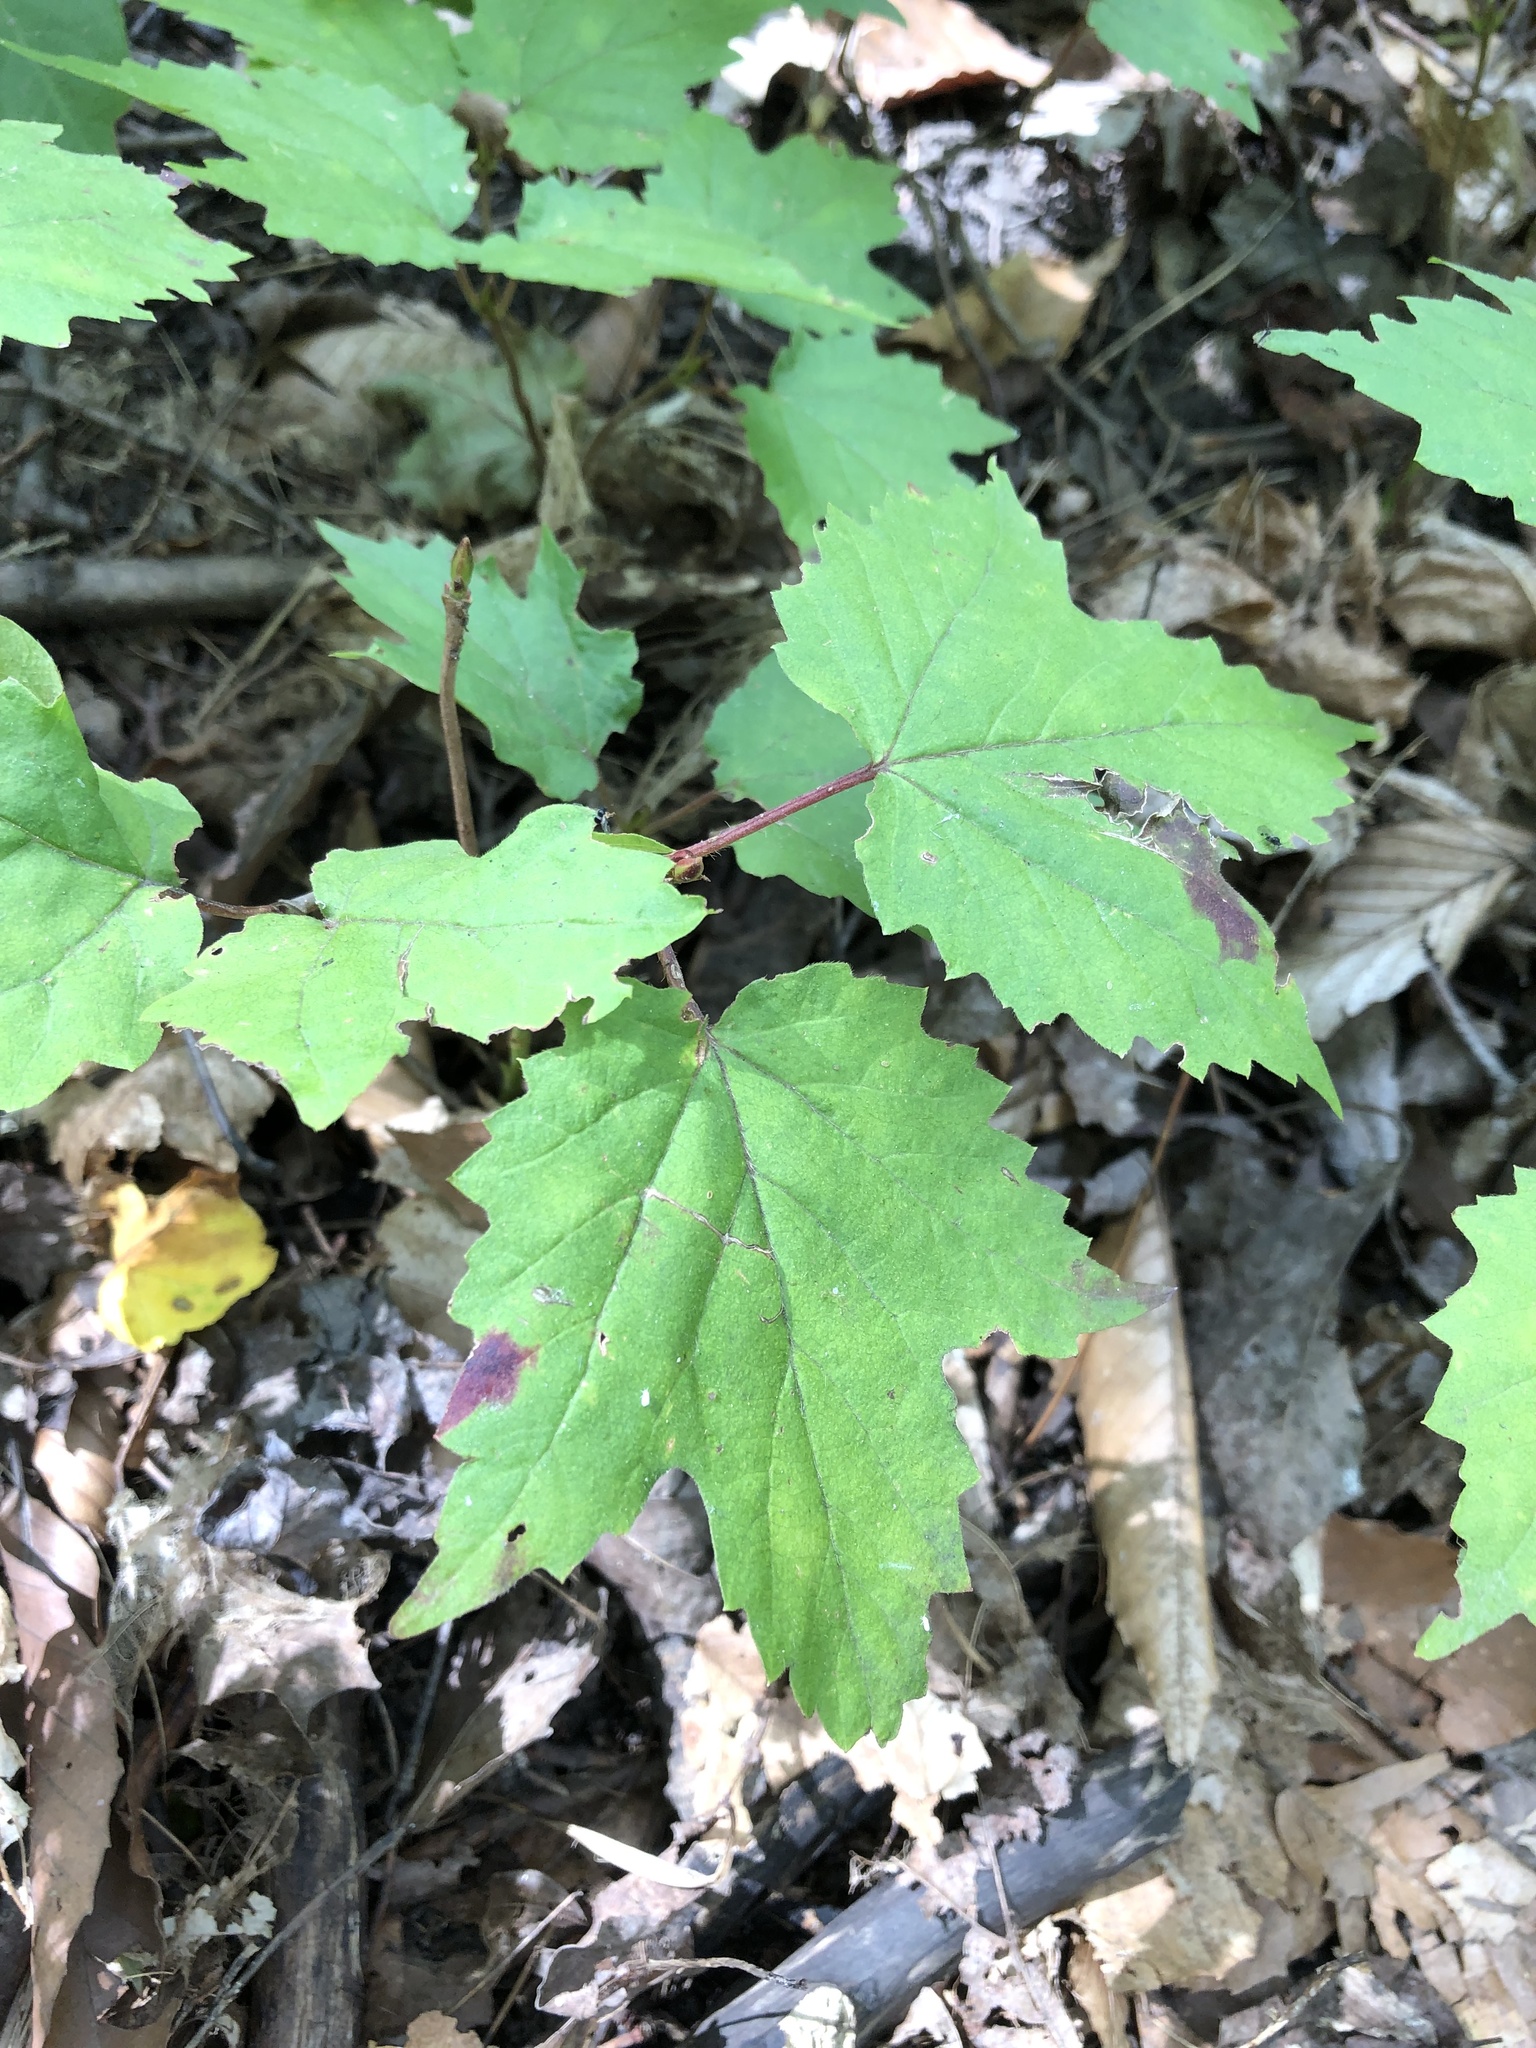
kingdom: Plantae
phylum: Tracheophyta
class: Magnoliopsida
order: Dipsacales
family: Viburnaceae
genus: Viburnum
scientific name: Viburnum acerifolium
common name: Dockmackie
